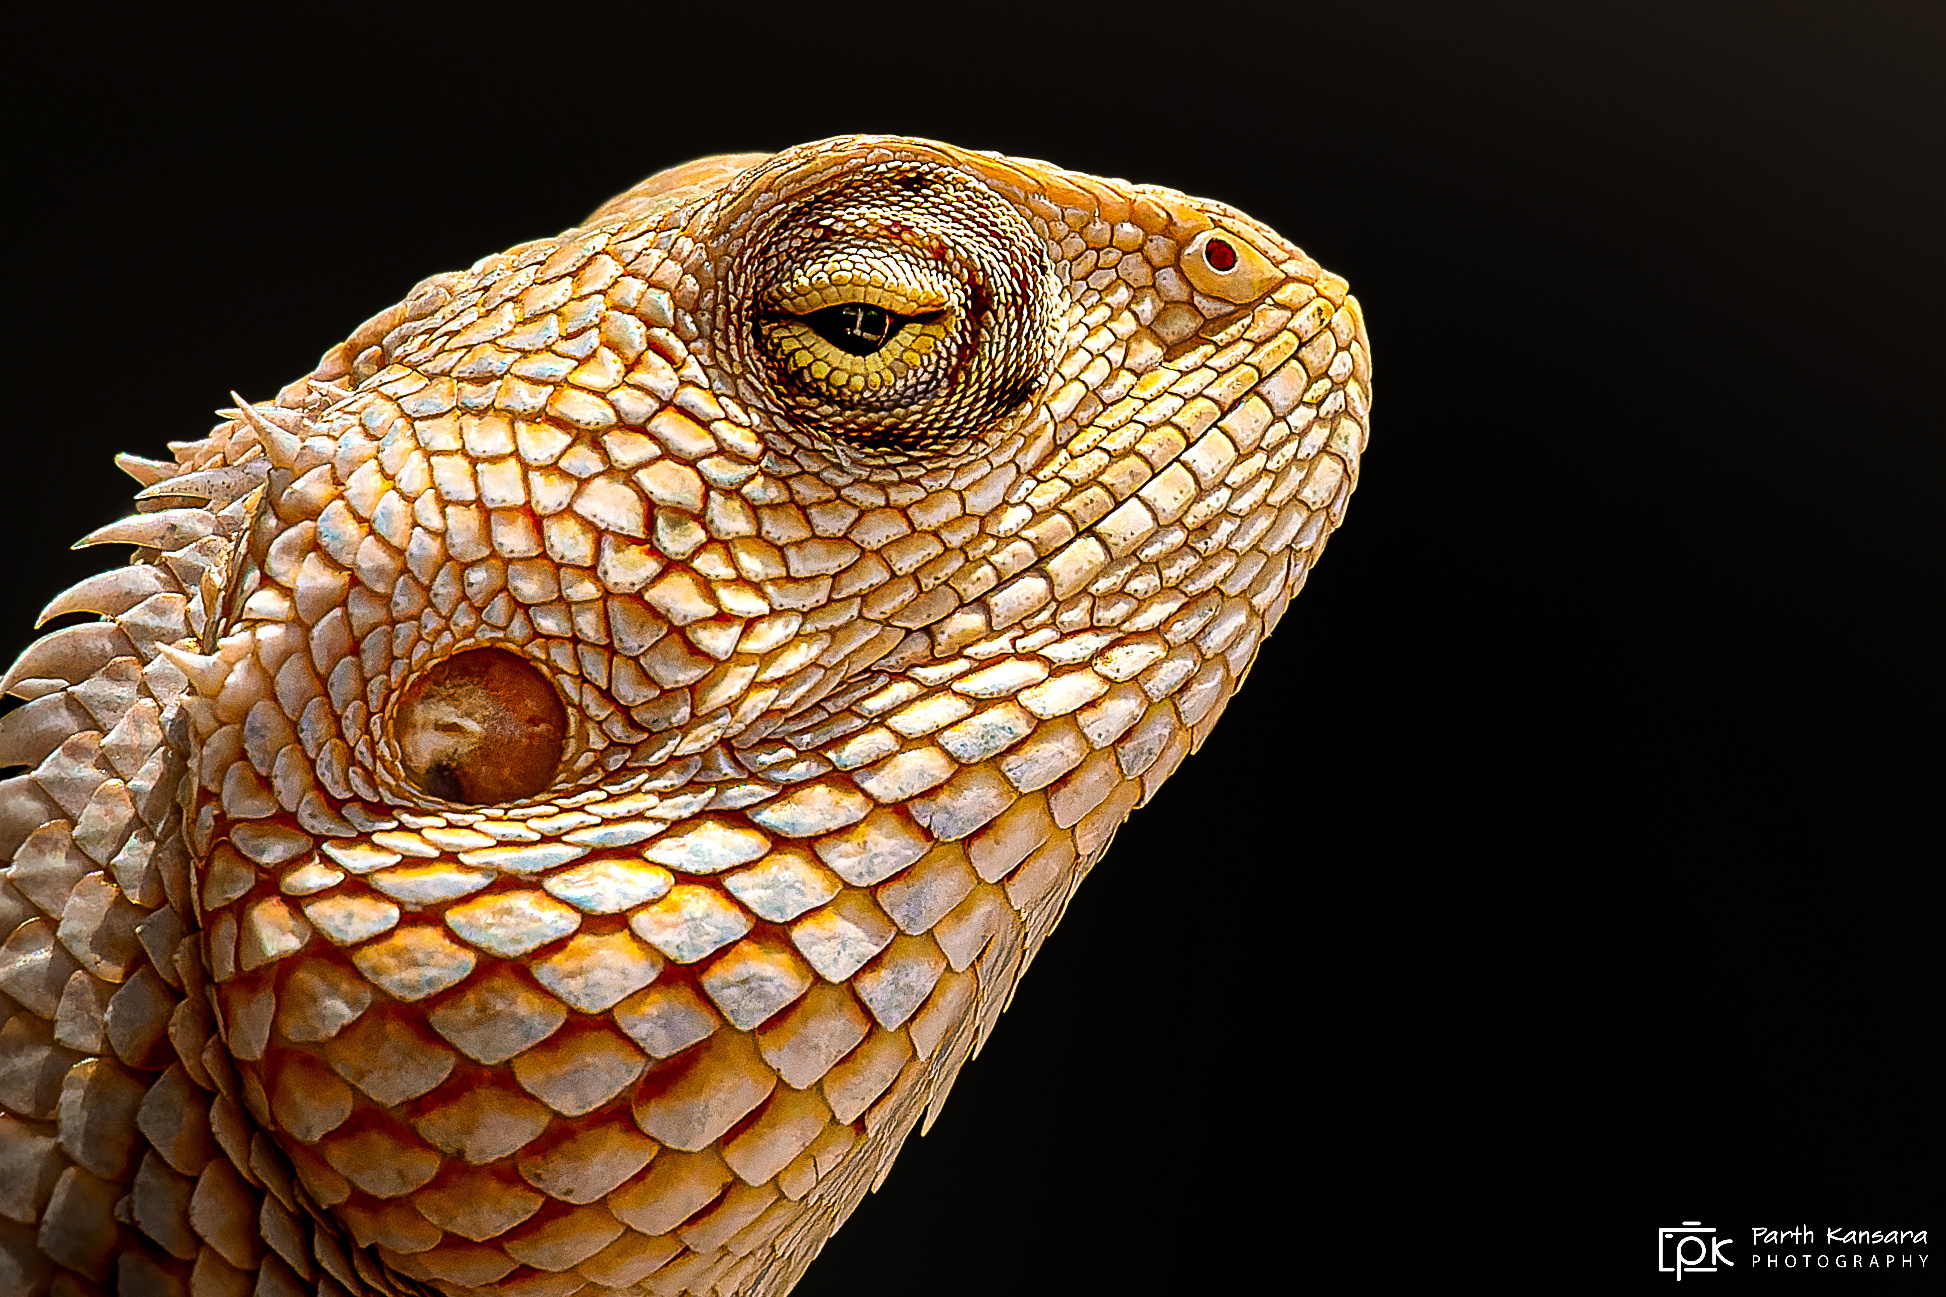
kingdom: Animalia
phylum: Chordata
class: Squamata
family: Agamidae
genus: Calotes
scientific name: Calotes versicolor
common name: Oriental garden lizard
